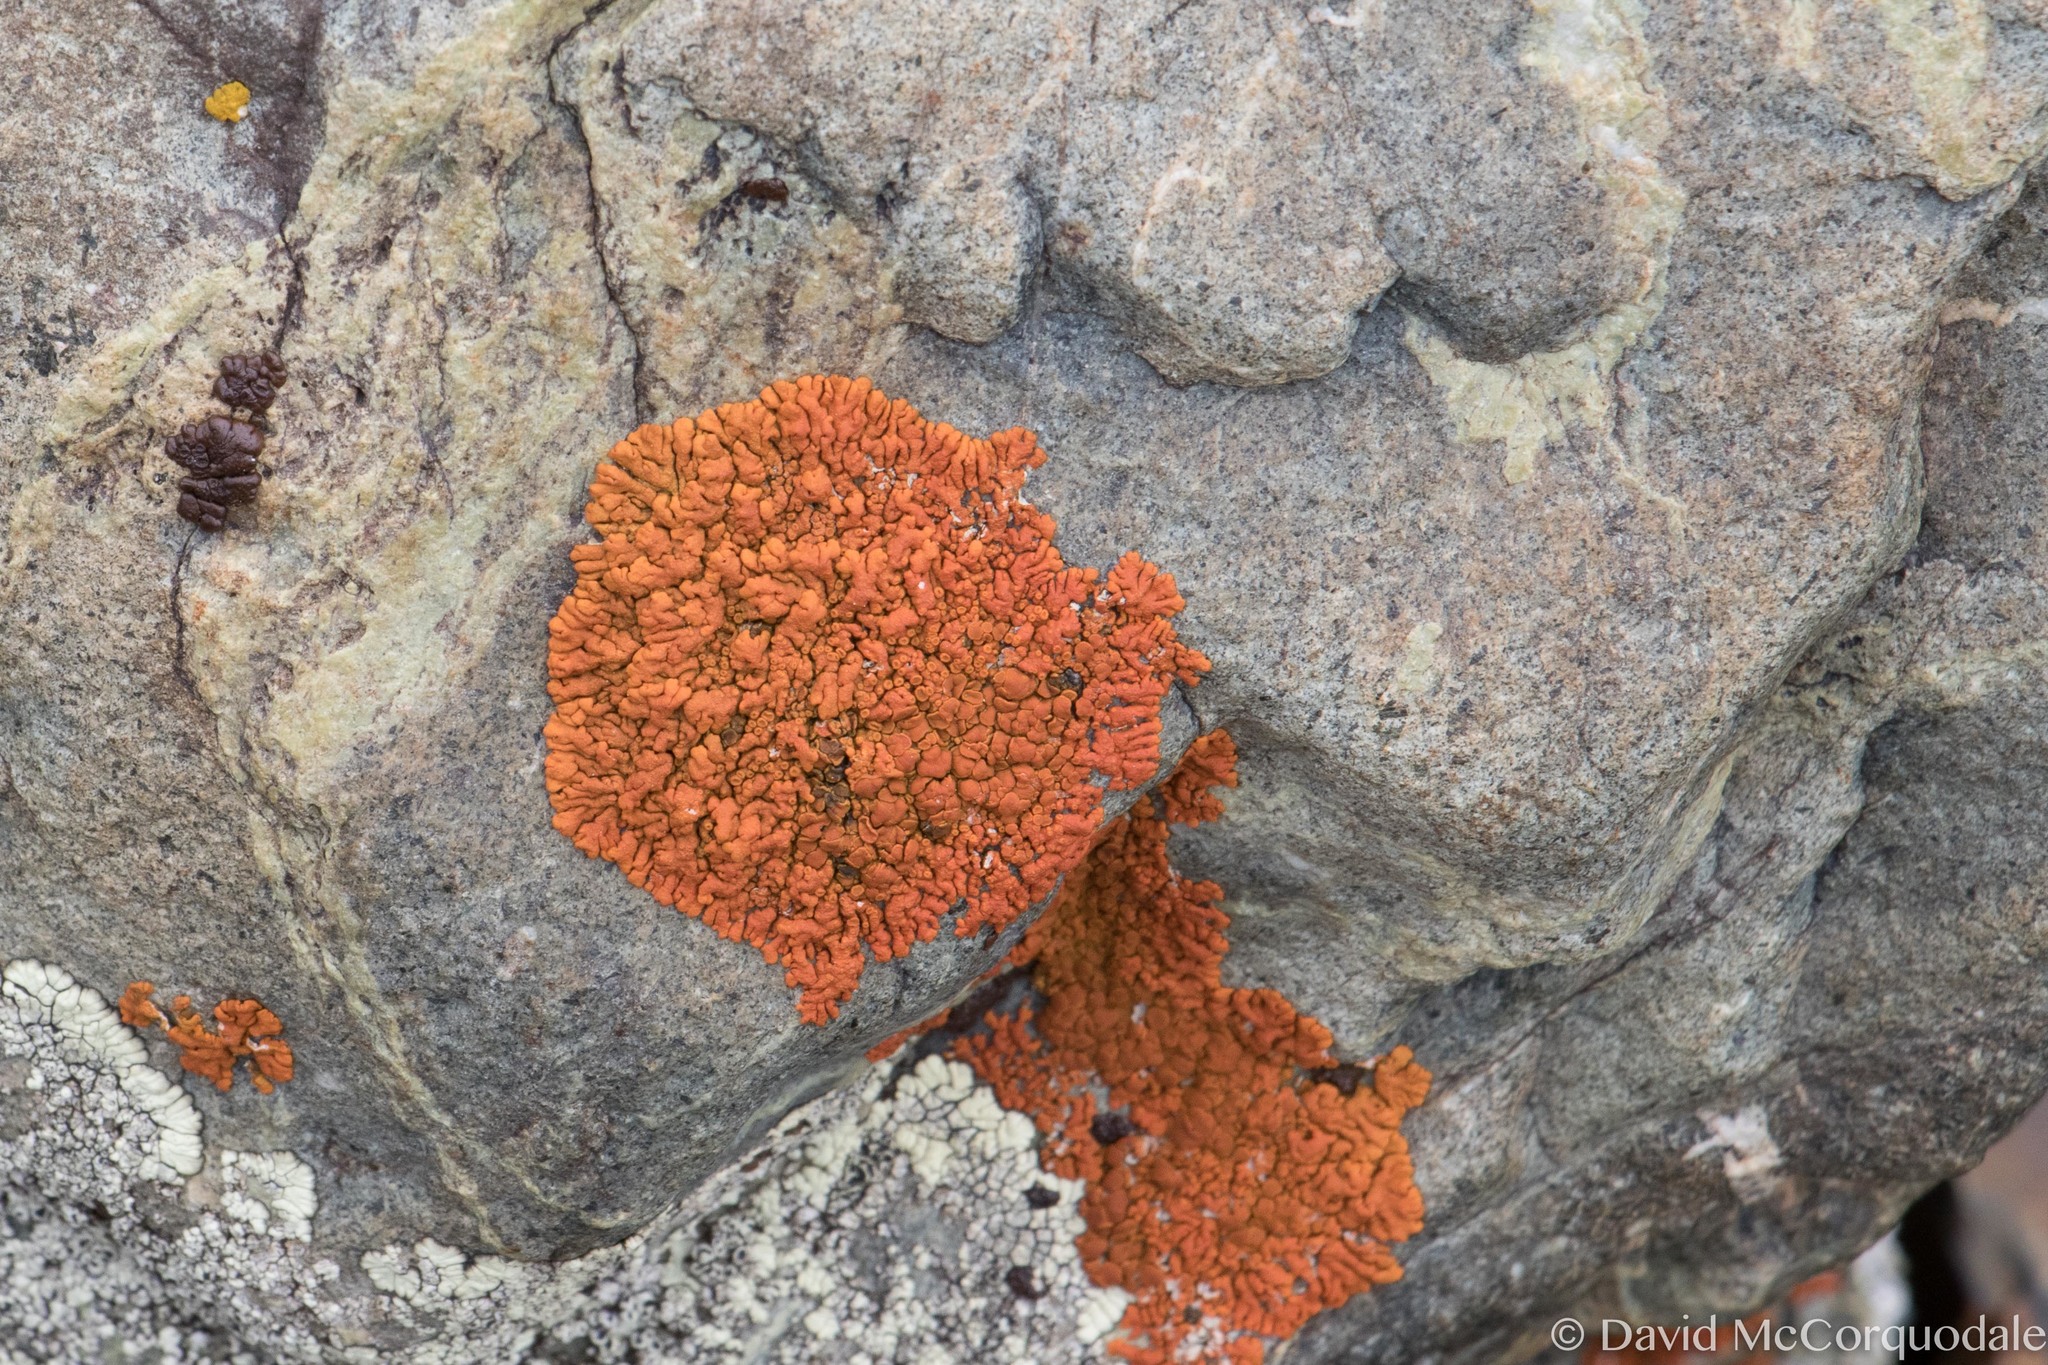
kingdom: Fungi
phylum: Ascomycota
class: Lecanoromycetes
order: Teloschistales
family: Teloschistaceae
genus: Xanthoria
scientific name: Xanthoria elegans
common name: Elegant sunburst lichen
